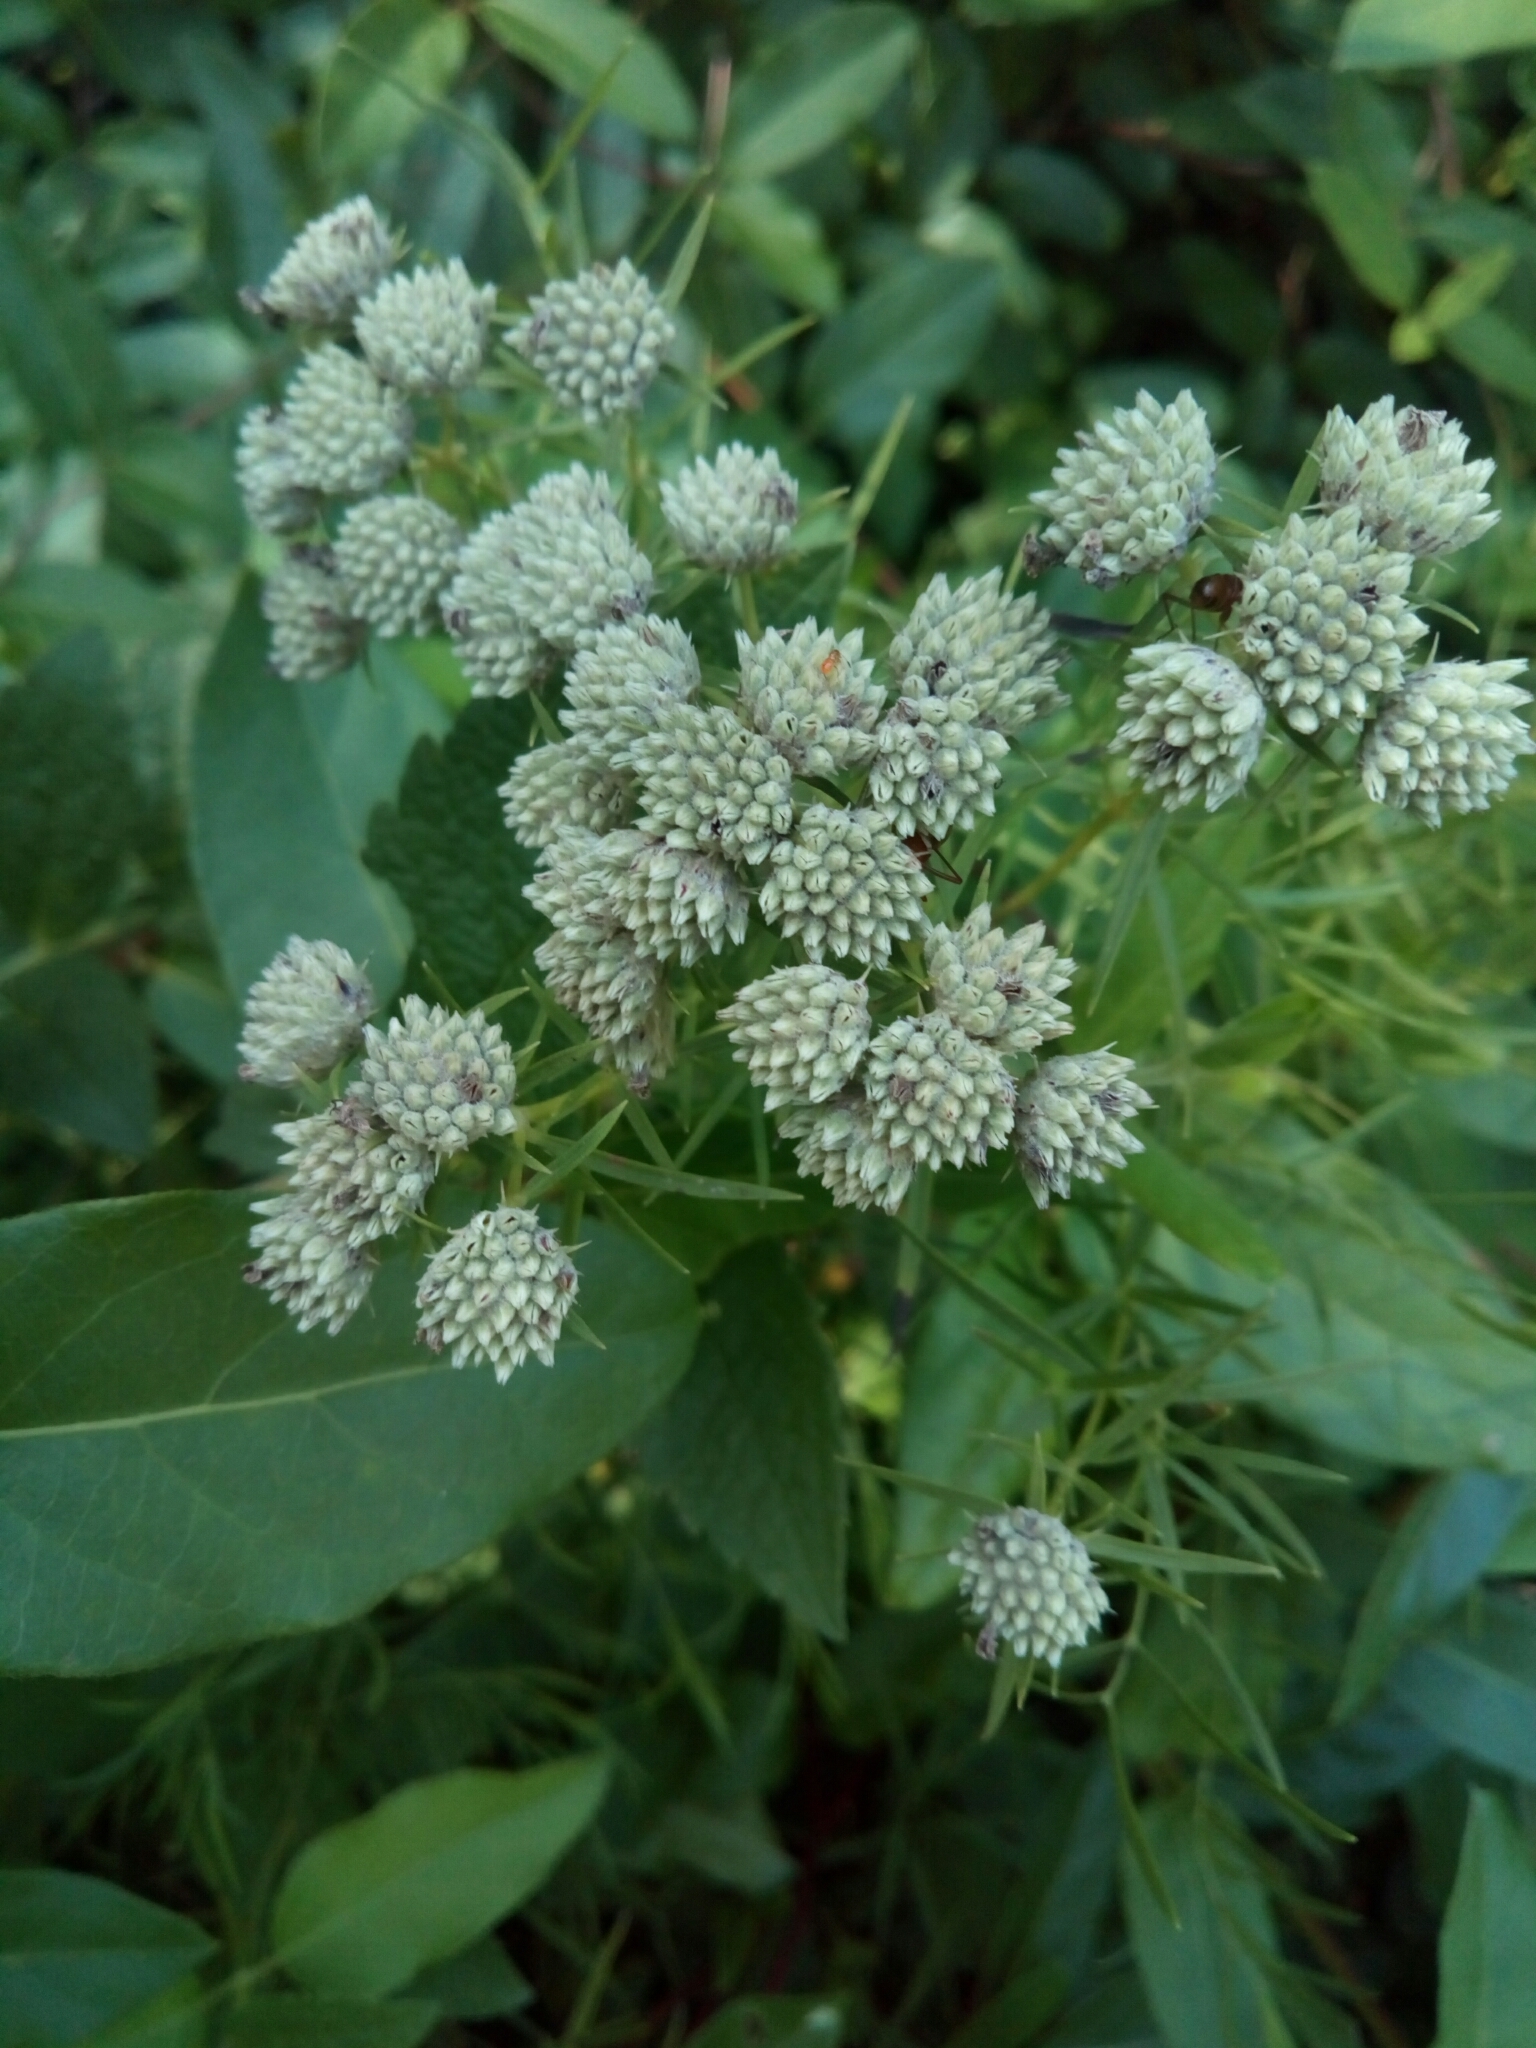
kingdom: Plantae
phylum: Tracheophyta
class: Magnoliopsida
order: Lamiales
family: Lamiaceae
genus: Pycnanthemum
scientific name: Pycnanthemum tenuifolium
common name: Narrow-leaf mountain-mint
